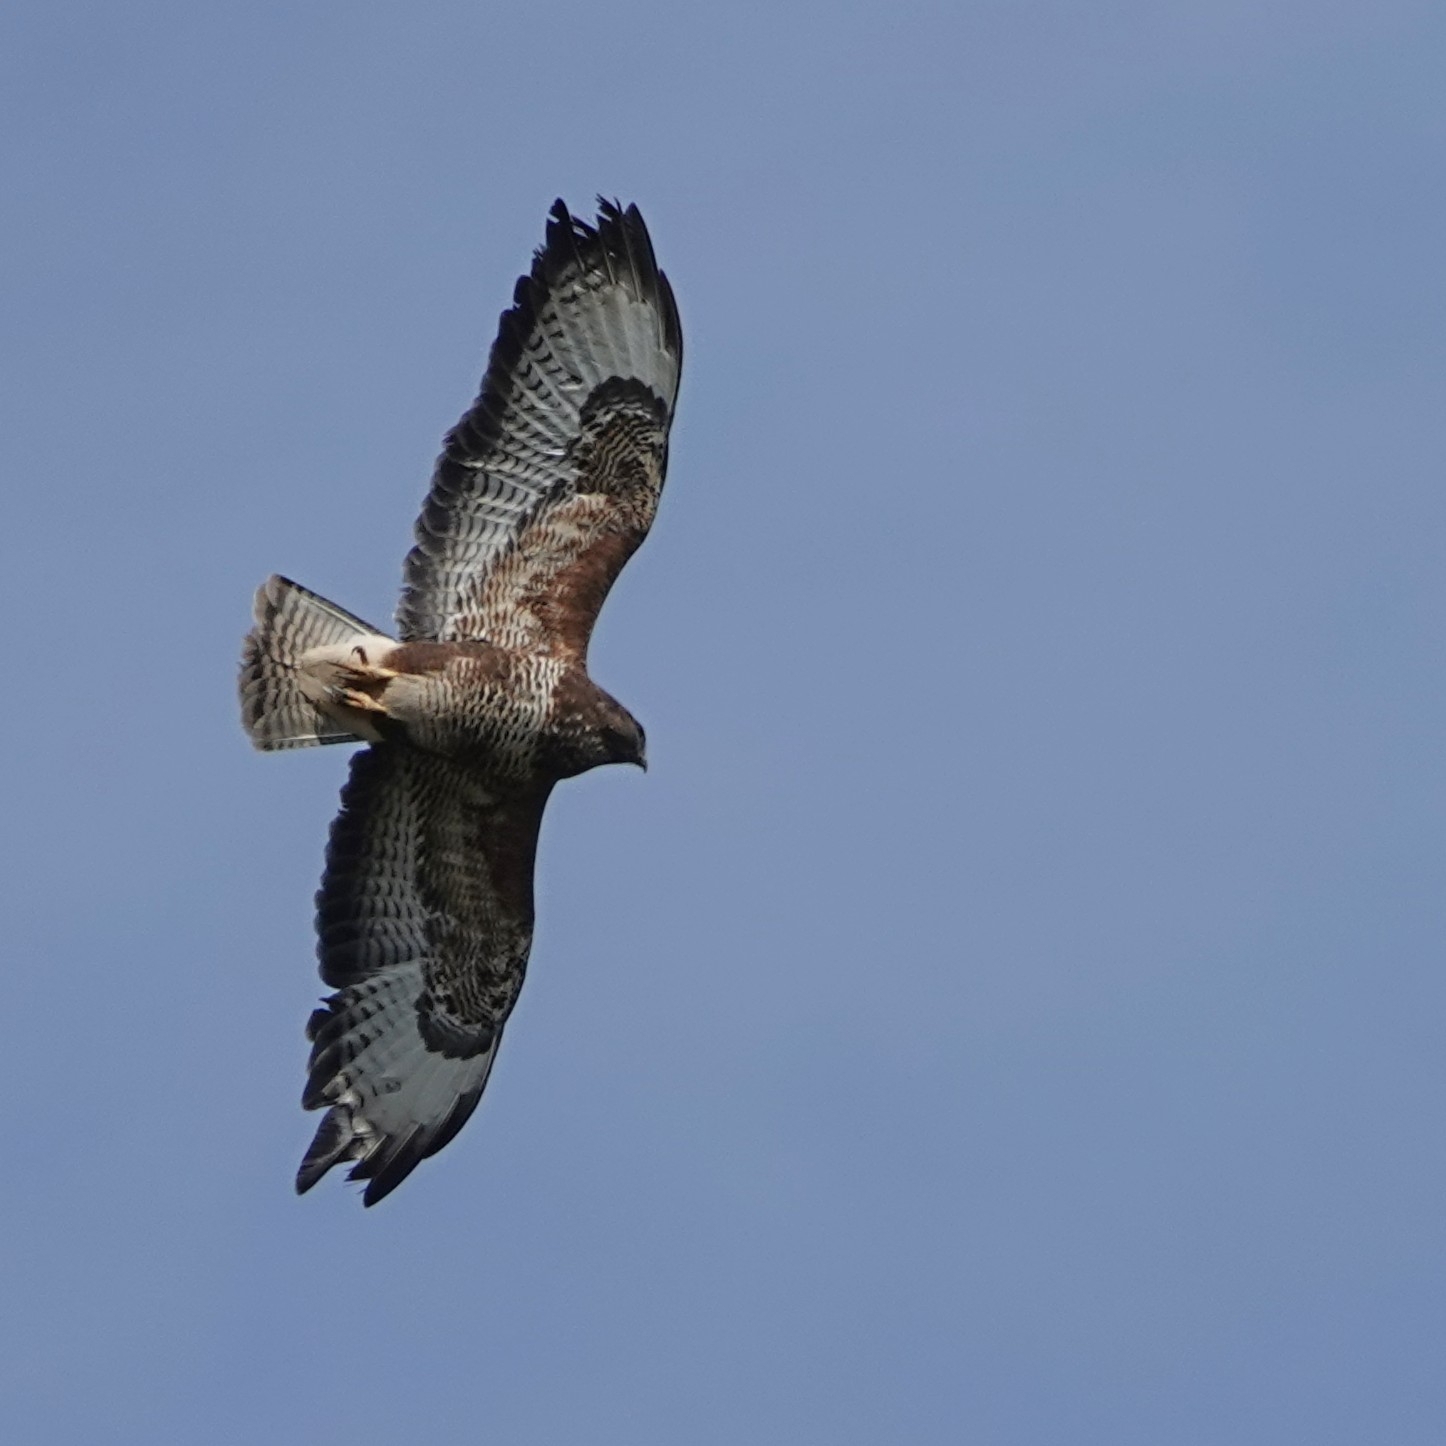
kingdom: Animalia
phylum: Chordata
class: Aves
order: Accipitriformes
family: Accipitridae
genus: Buteo
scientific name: Buteo buteo
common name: Common buzzard
